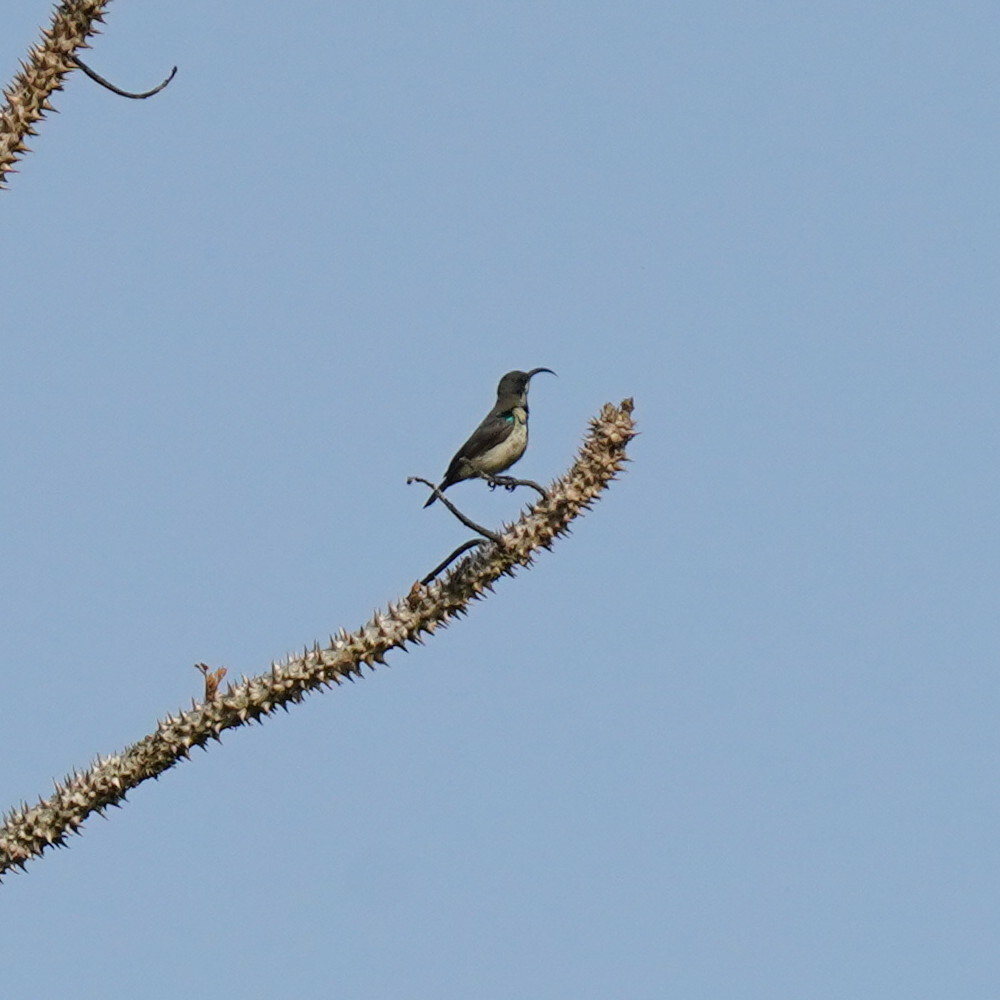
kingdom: Animalia
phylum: Chordata
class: Aves
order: Passeriformes
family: Nectariniidae
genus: Cinnyris
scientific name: Cinnyris lotenius
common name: Loten's sunbird
